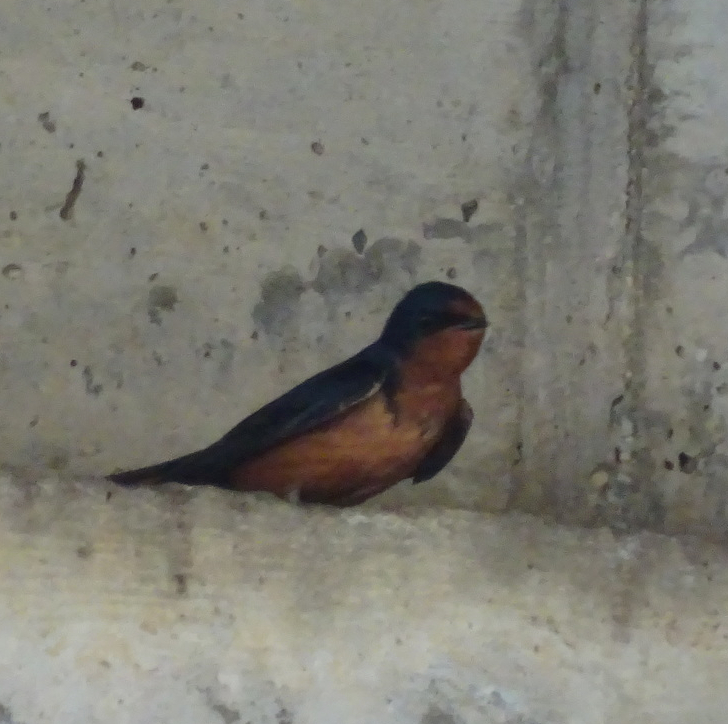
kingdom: Animalia
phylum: Chordata
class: Aves
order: Passeriformes
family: Hirundinidae
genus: Hirundo
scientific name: Hirundo rustica
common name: Barn swallow
